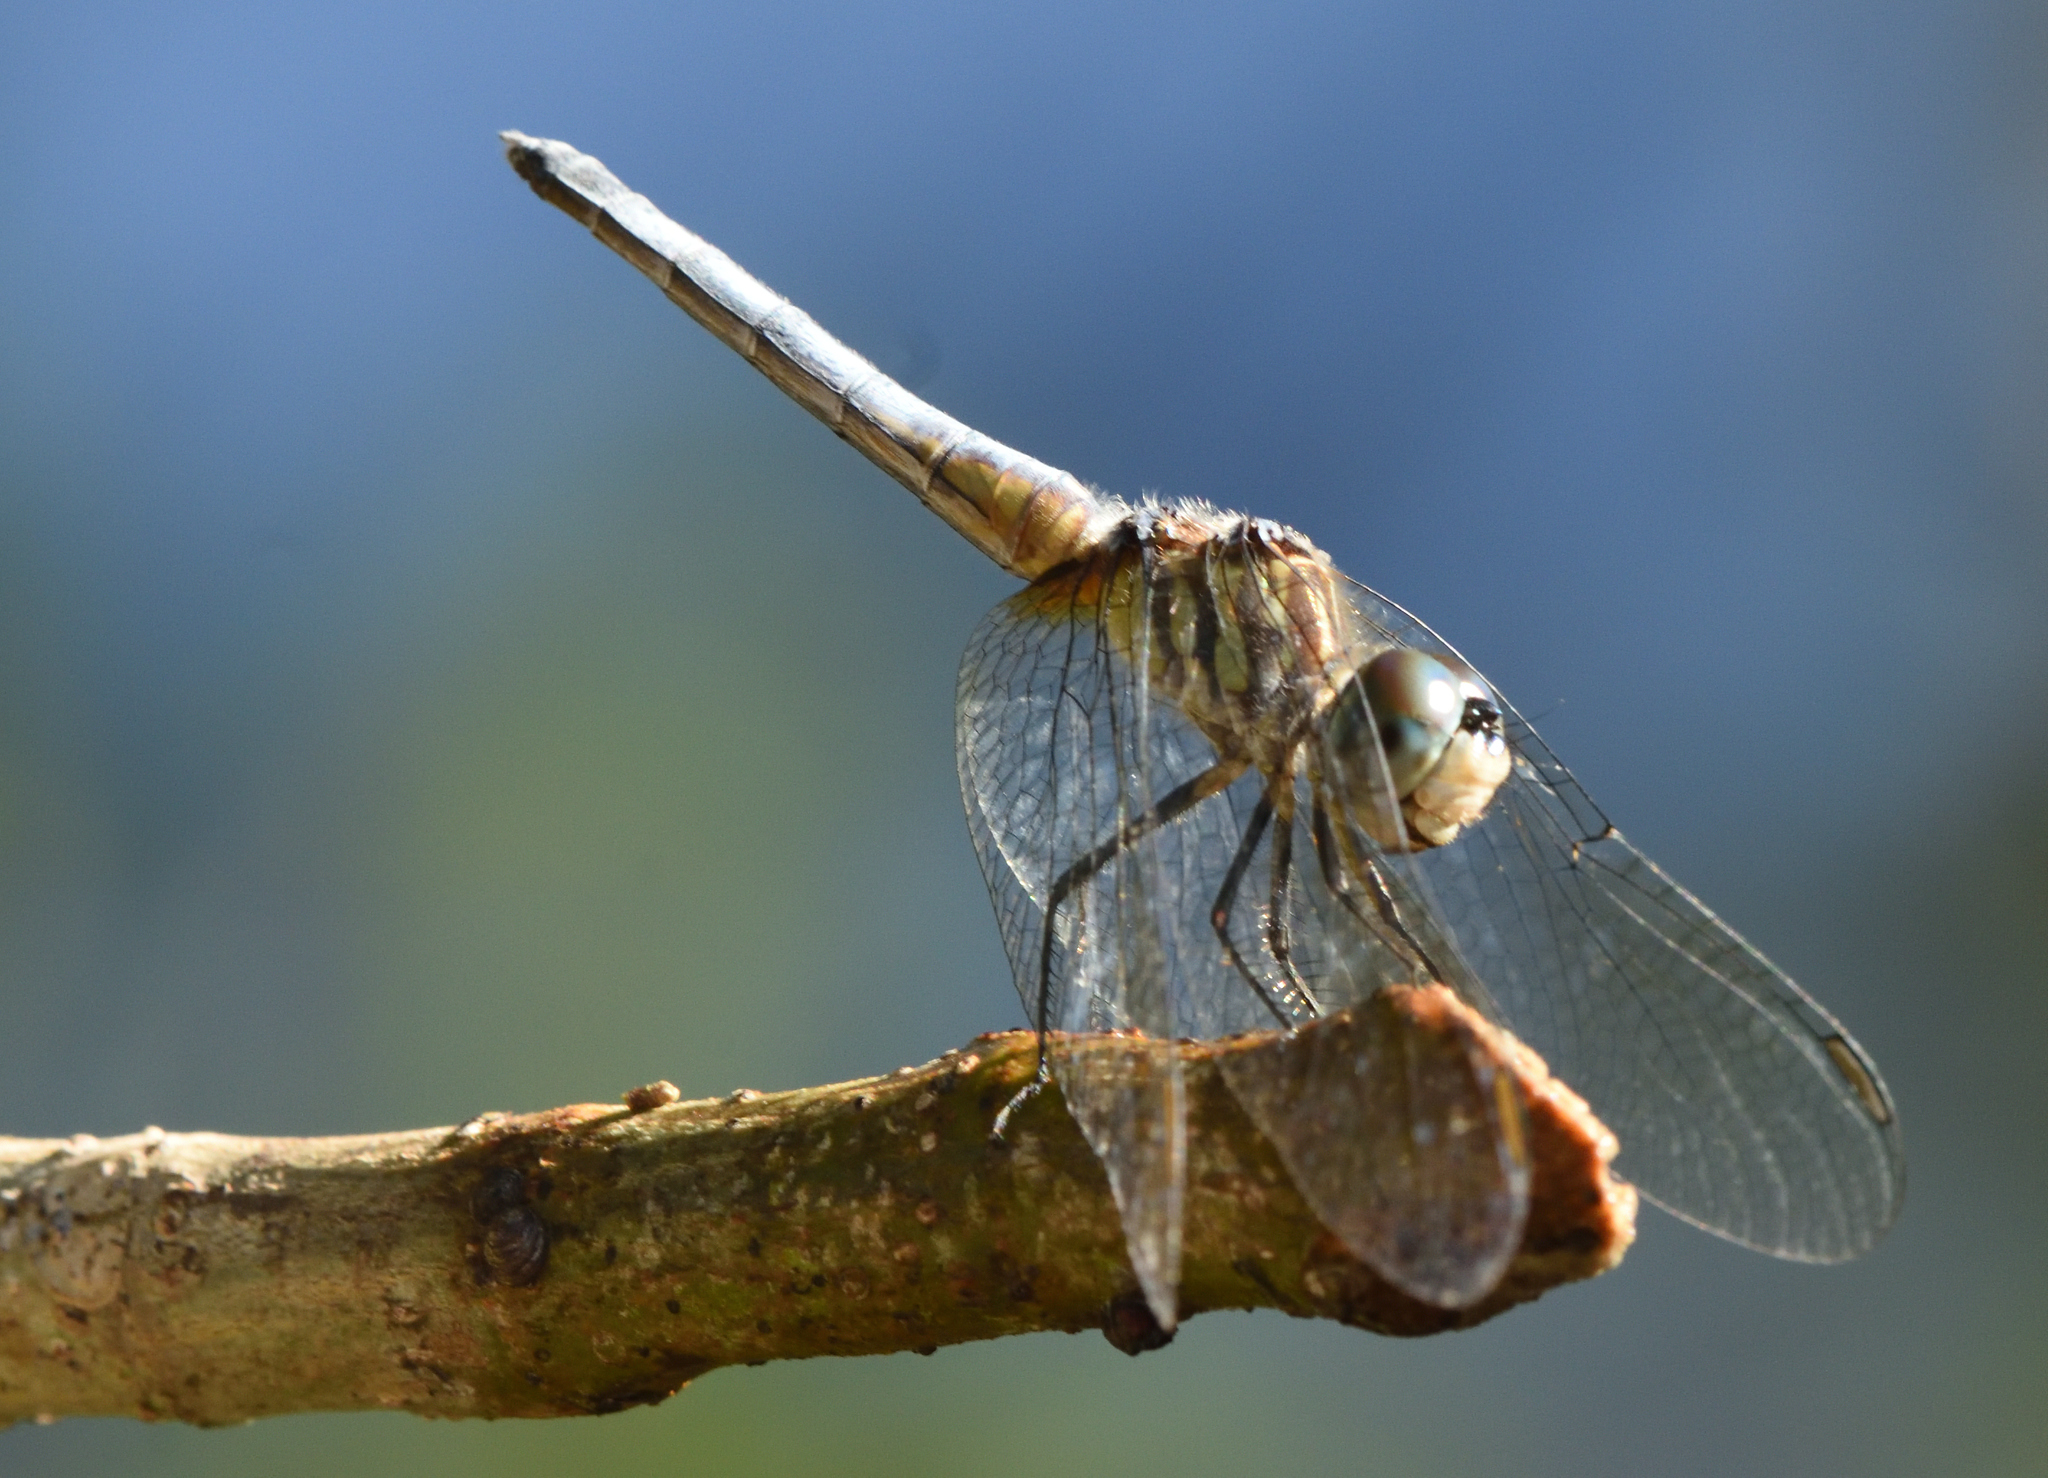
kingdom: Animalia
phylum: Arthropoda
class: Insecta
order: Odonata
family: Libellulidae
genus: Pachydiplax
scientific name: Pachydiplax longipennis
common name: Blue dasher
